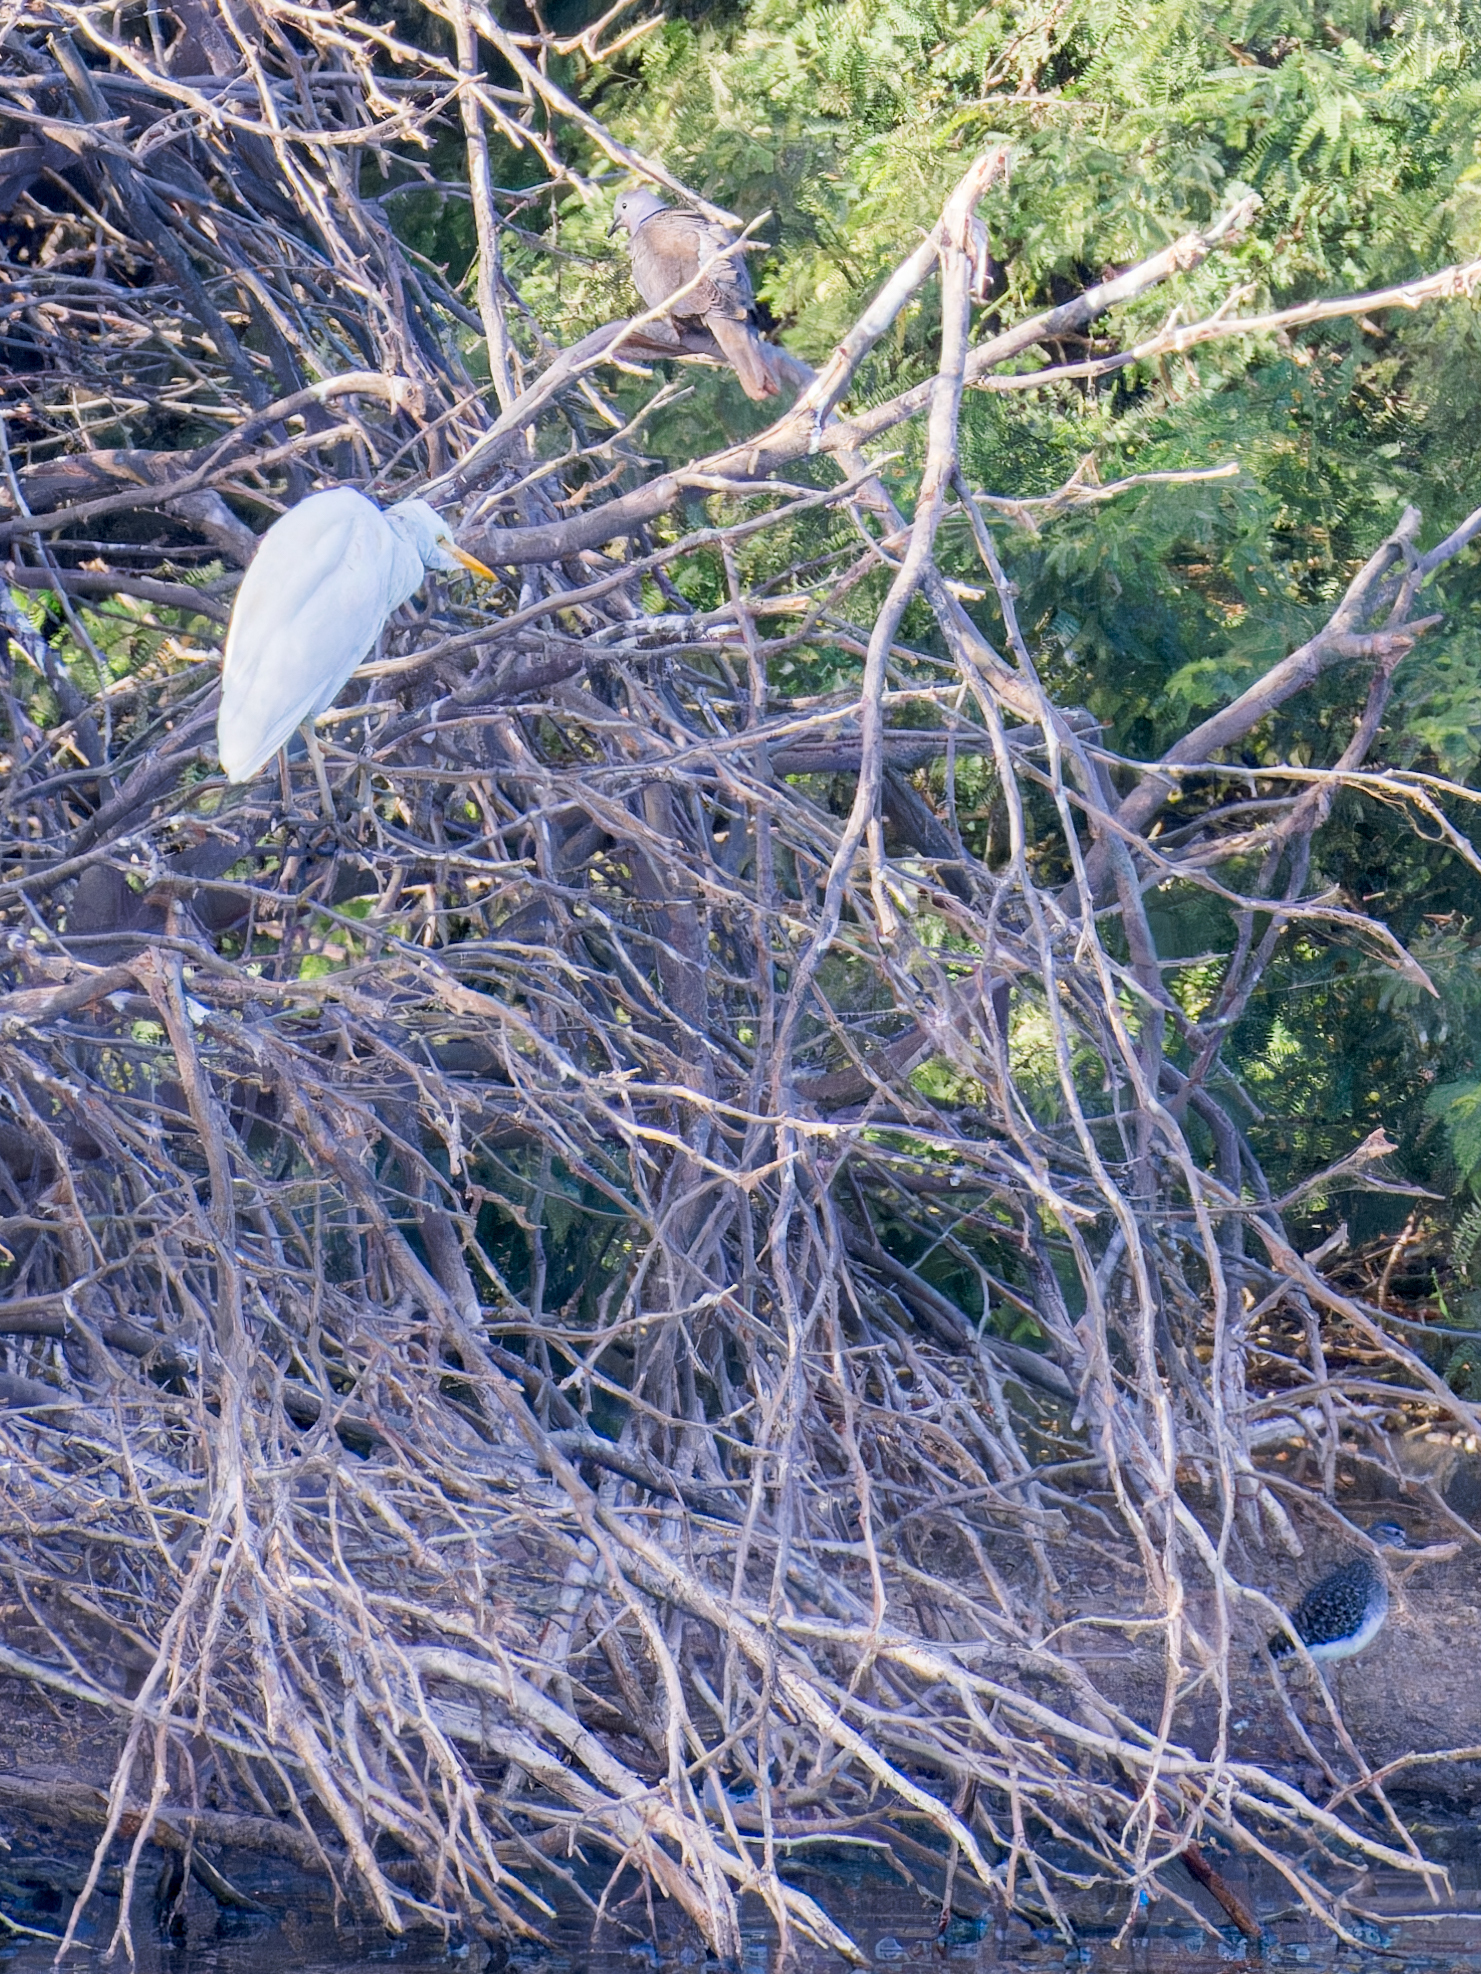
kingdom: Animalia
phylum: Chordata
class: Aves
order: Columbiformes
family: Columbidae
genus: Streptopelia
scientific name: Streptopelia decaocto
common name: Eurasian collared dove
